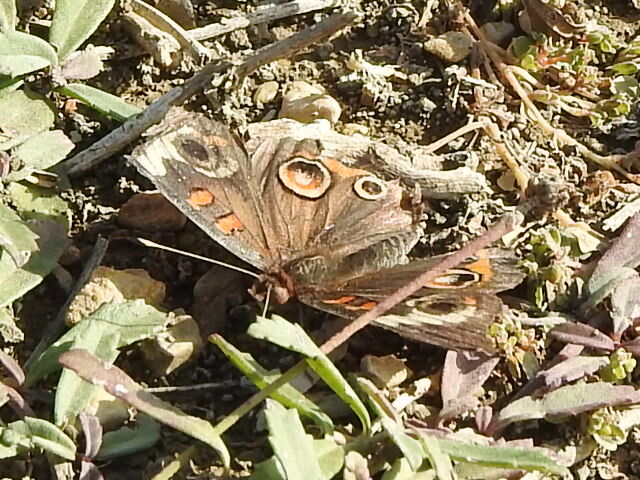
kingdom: Animalia
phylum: Arthropoda
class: Insecta
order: Lepidoptera
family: Nymphalidae
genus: Junonia
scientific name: Junonia coenia
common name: Common buckeye
